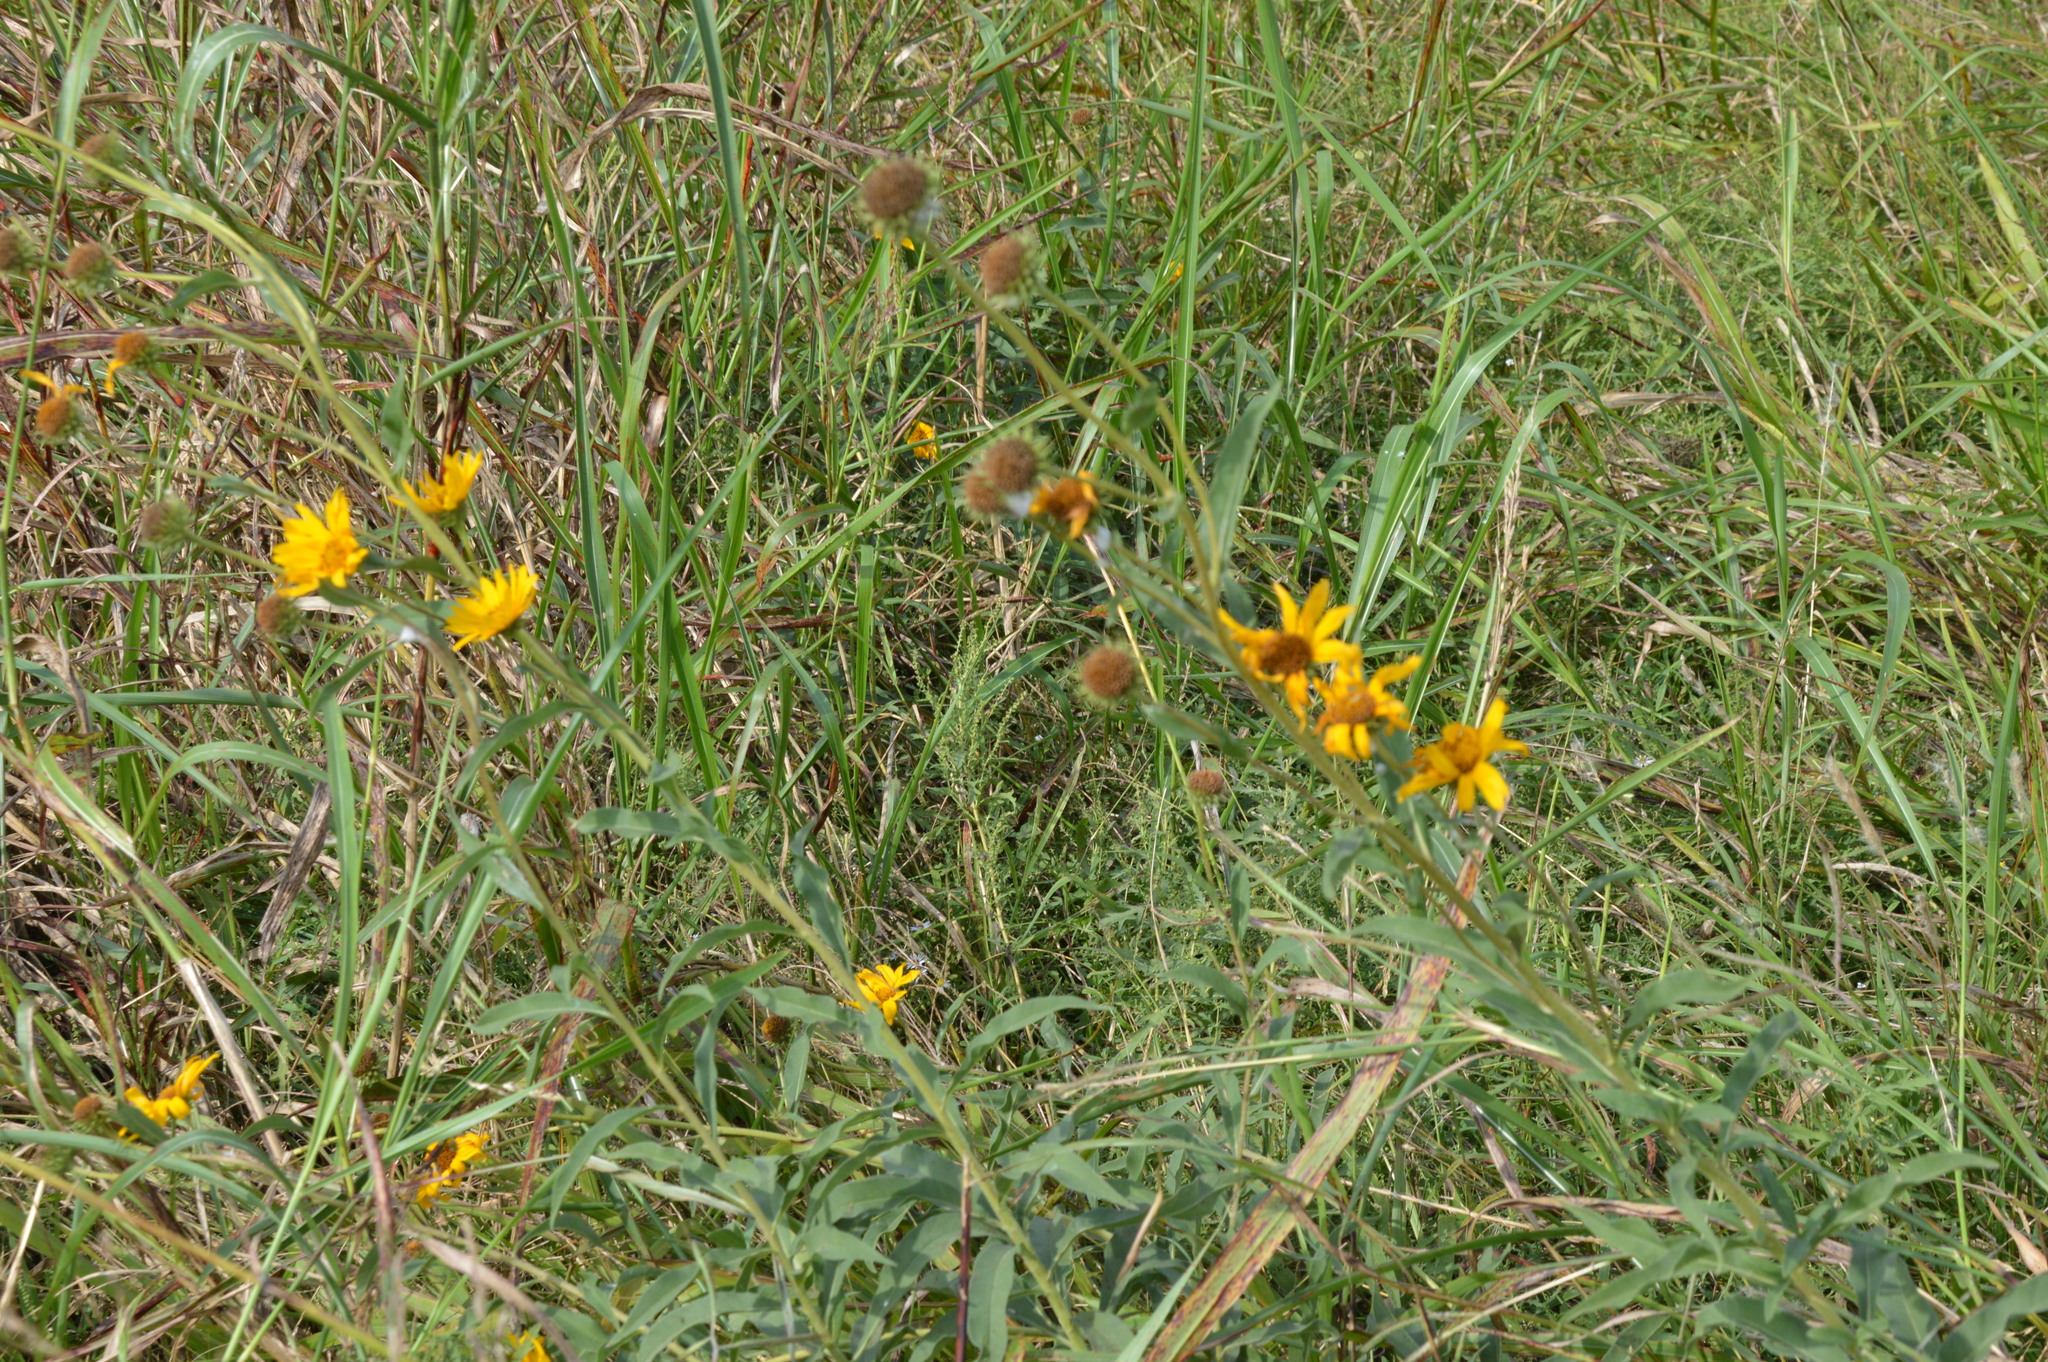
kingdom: Plantae
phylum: Tracheophyta
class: Magnoliopsida
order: Asterales
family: Asteraceae
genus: Helianthus
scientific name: Helianthus maximiliani
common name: Maximilian's sunflower
